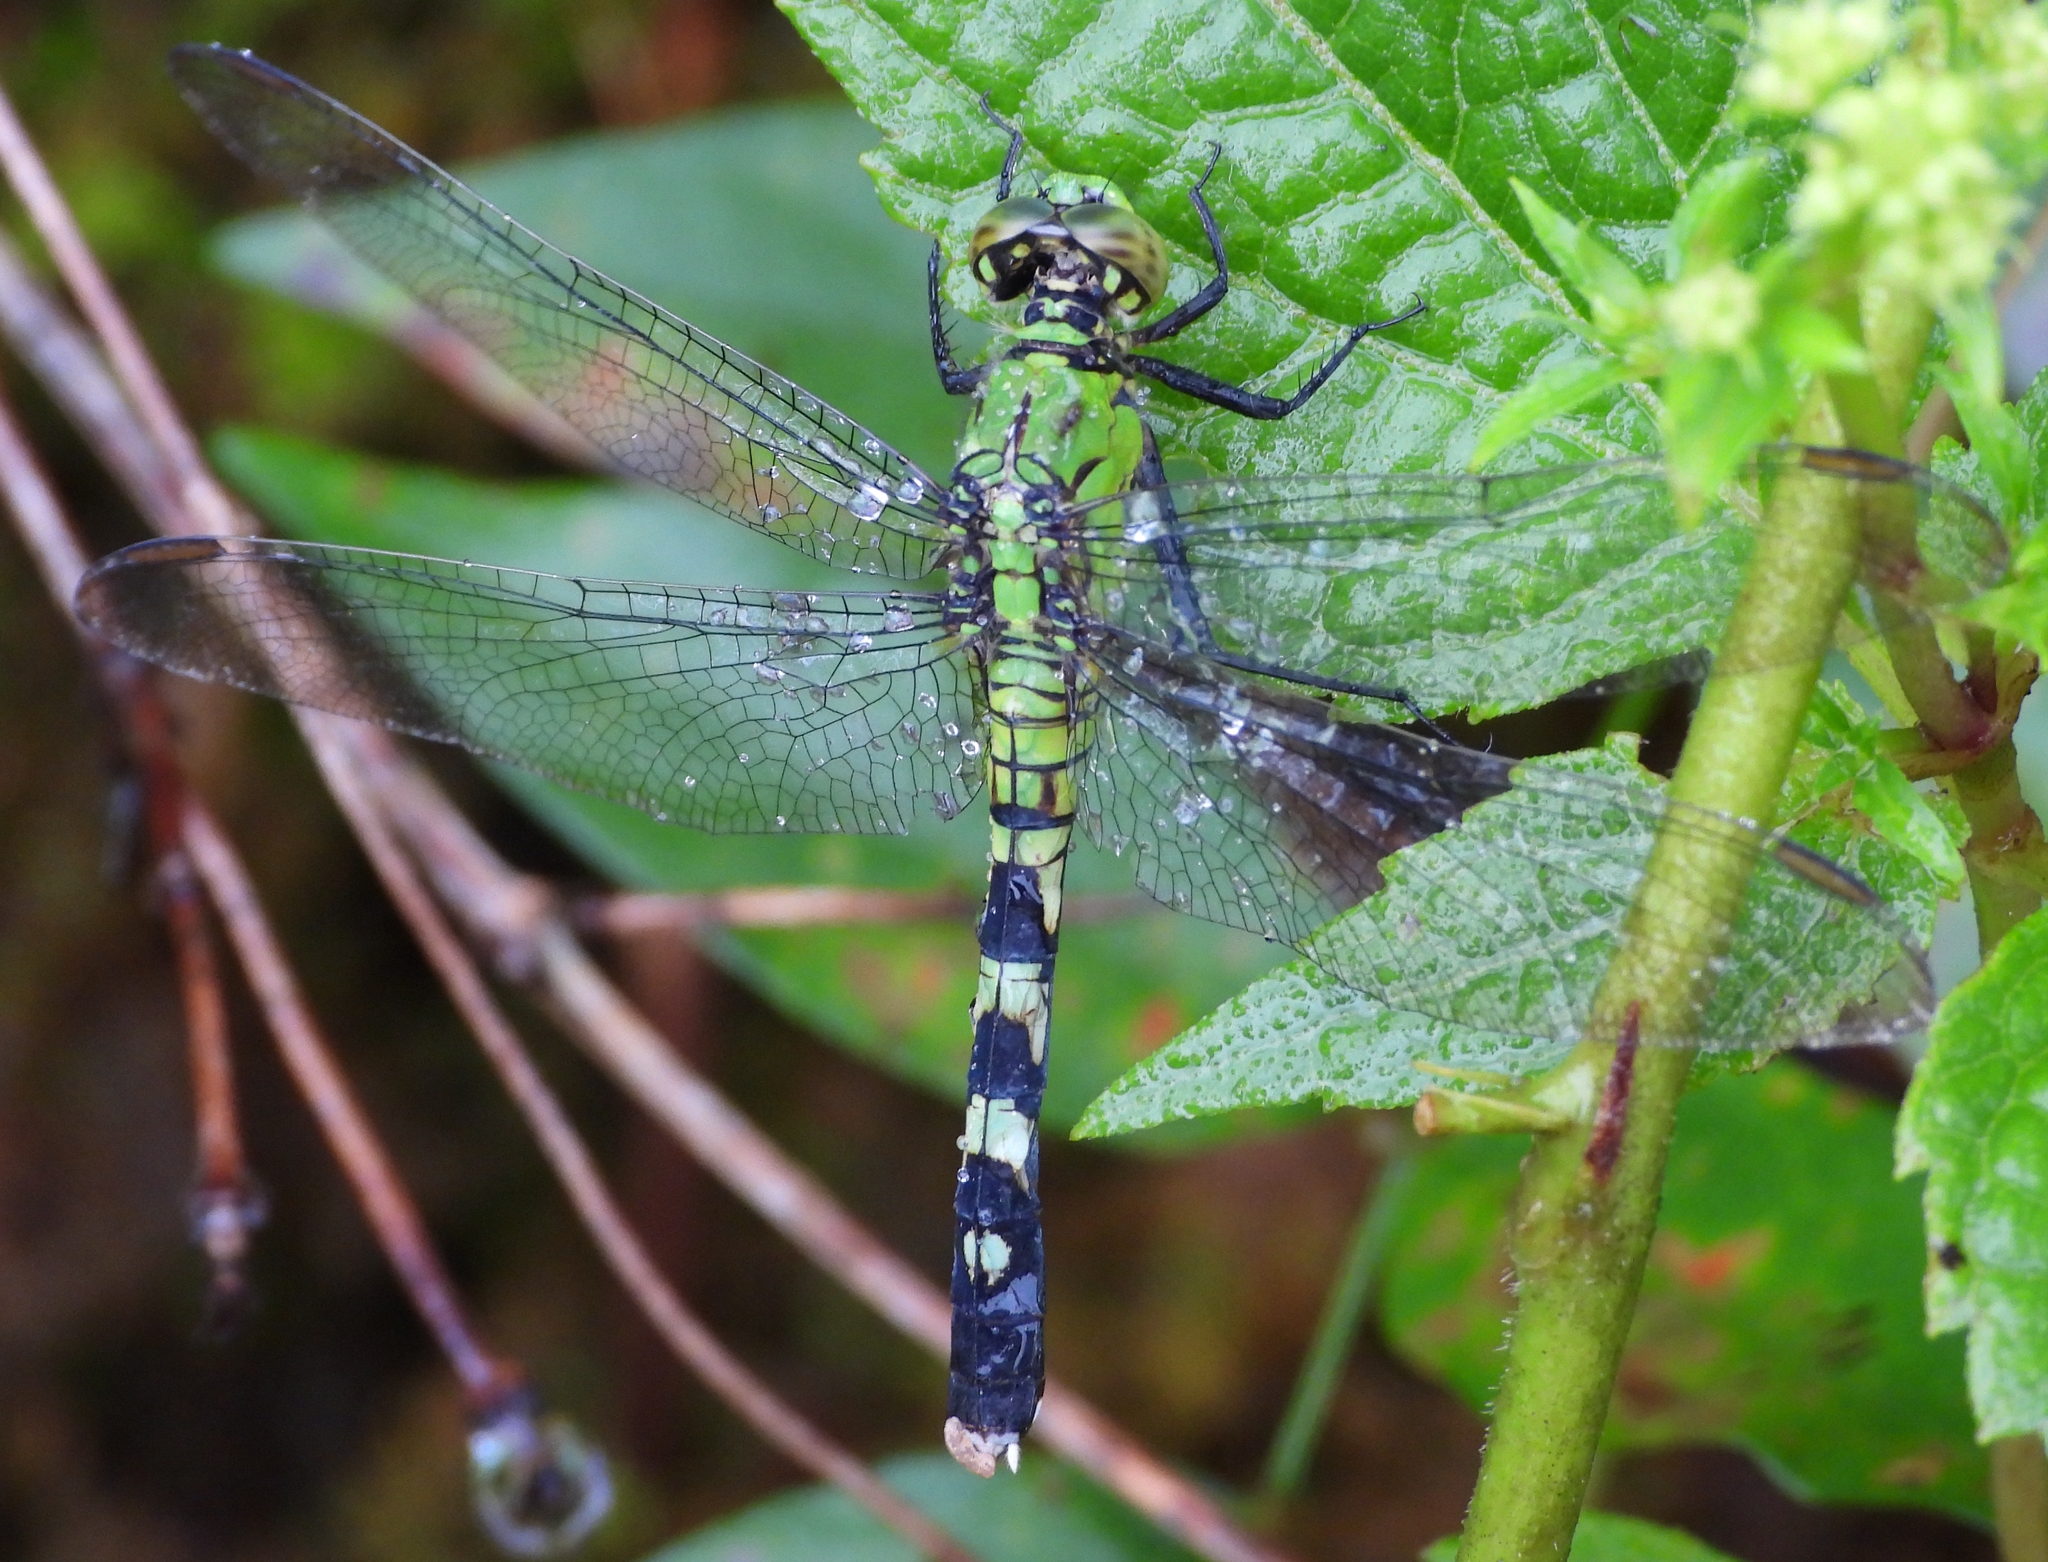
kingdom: Animalia
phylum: Arthropoda
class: Insecta
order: Odonata
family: Libellulidae
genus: Erythemis
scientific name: Erythemis simplicicollis
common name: Eastern pondhawk
